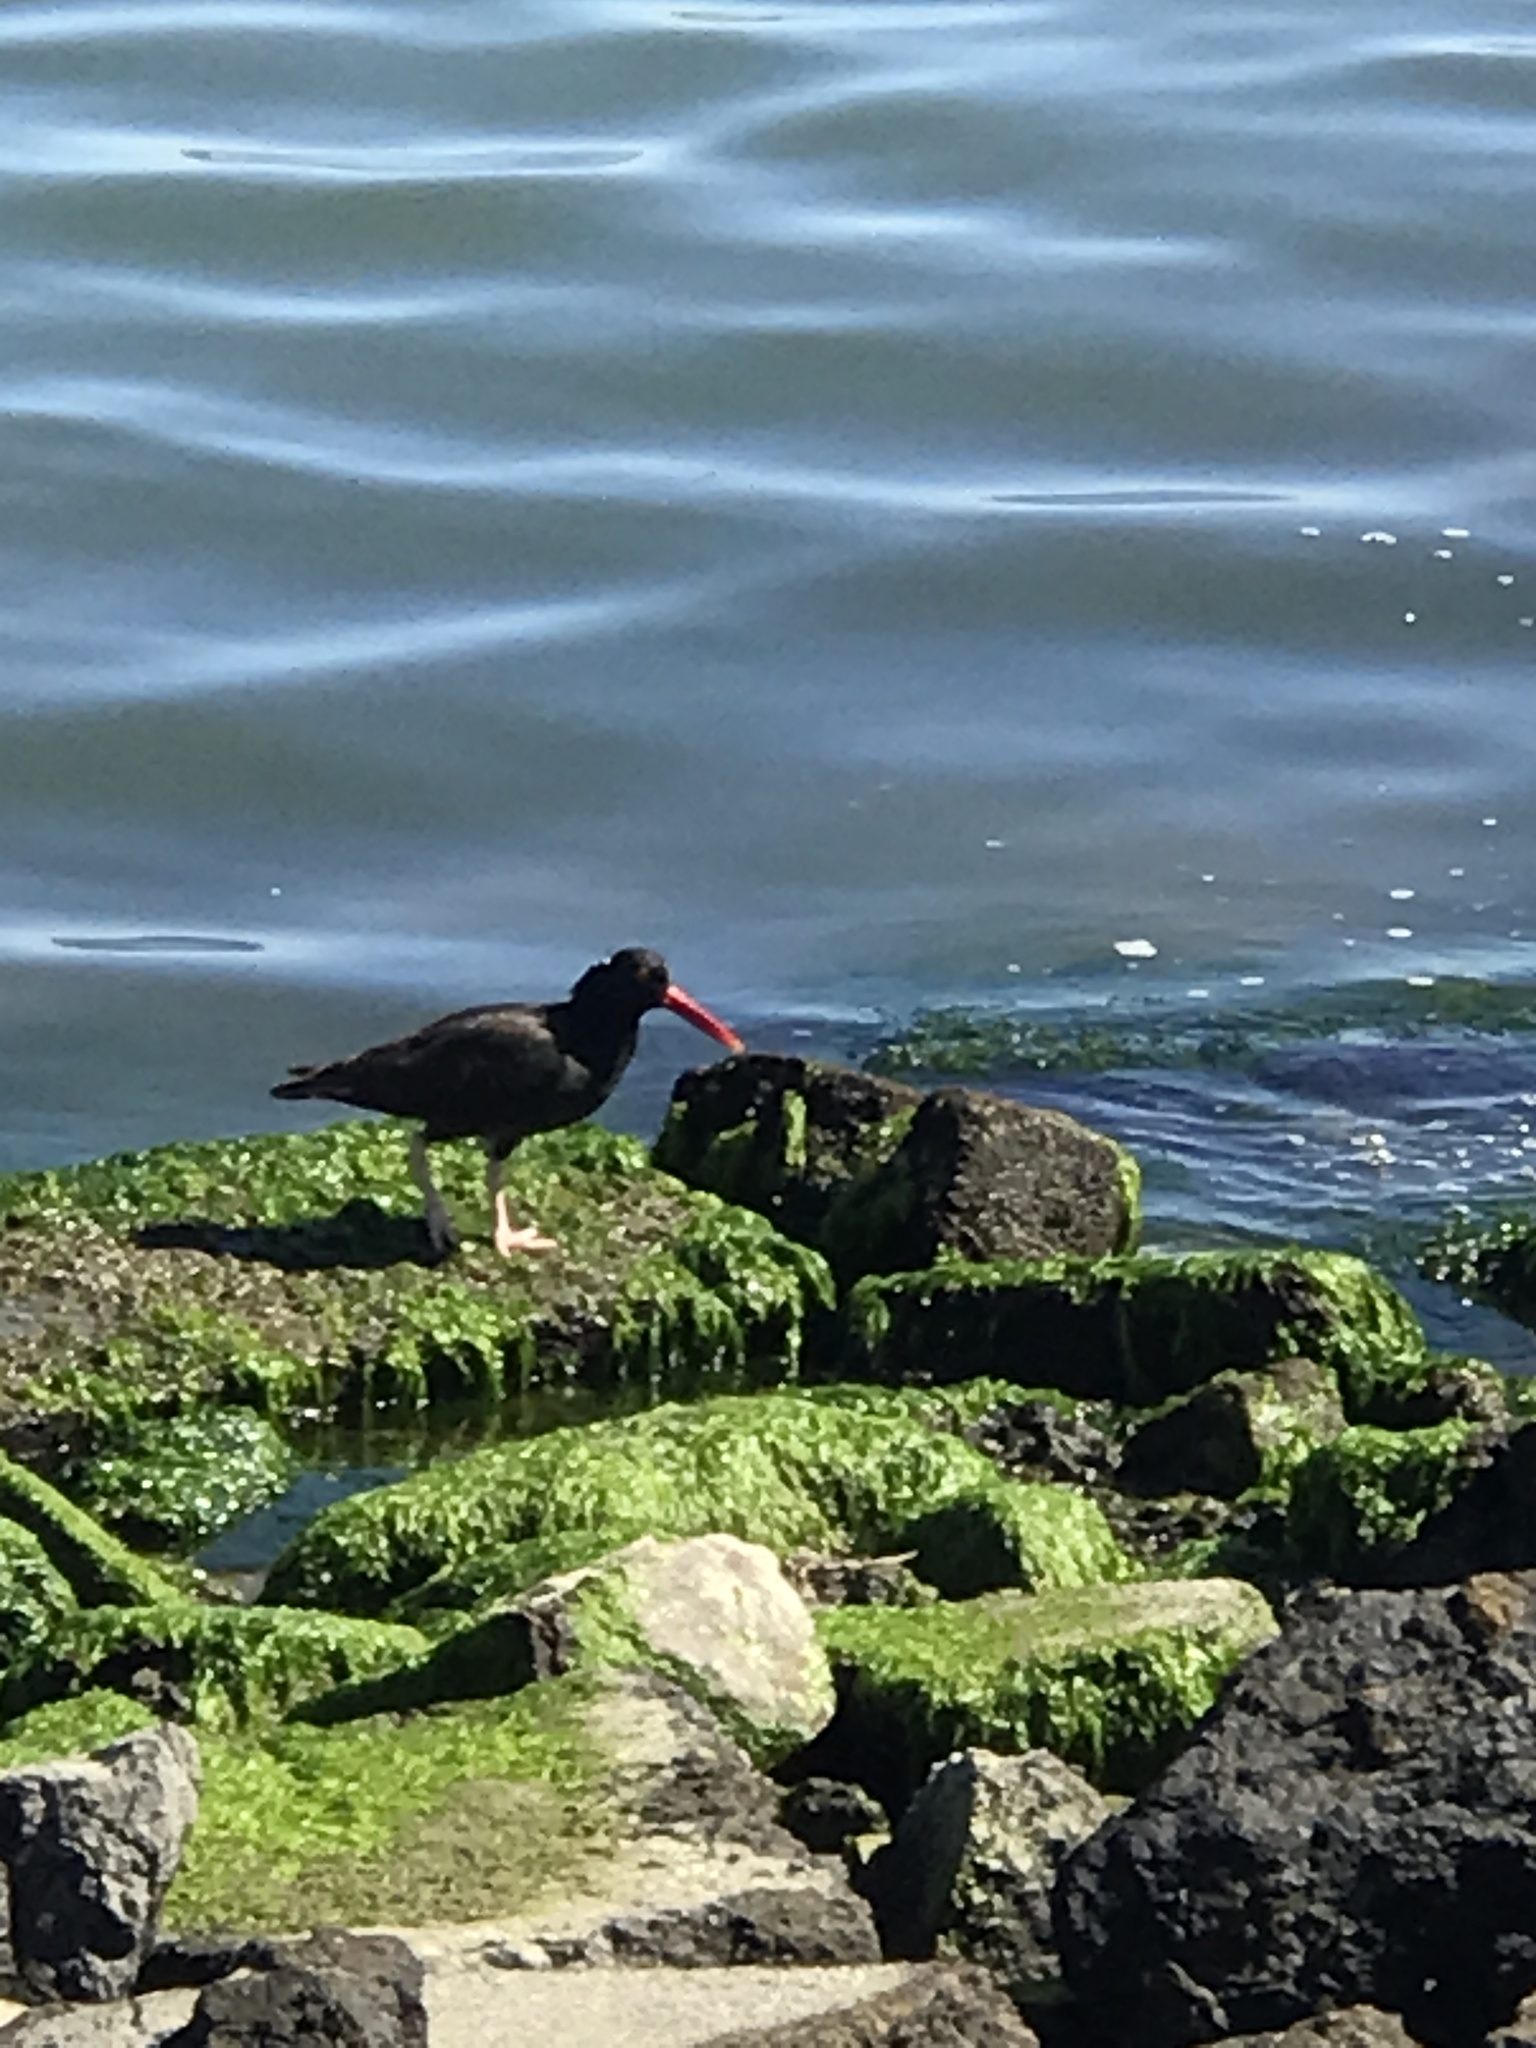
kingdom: Animalia
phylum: Chordata
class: Aves
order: Charadriiformes
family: Haematopodidae
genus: Haematopus
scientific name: Haematopus bachmani
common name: Black oystercatcher
